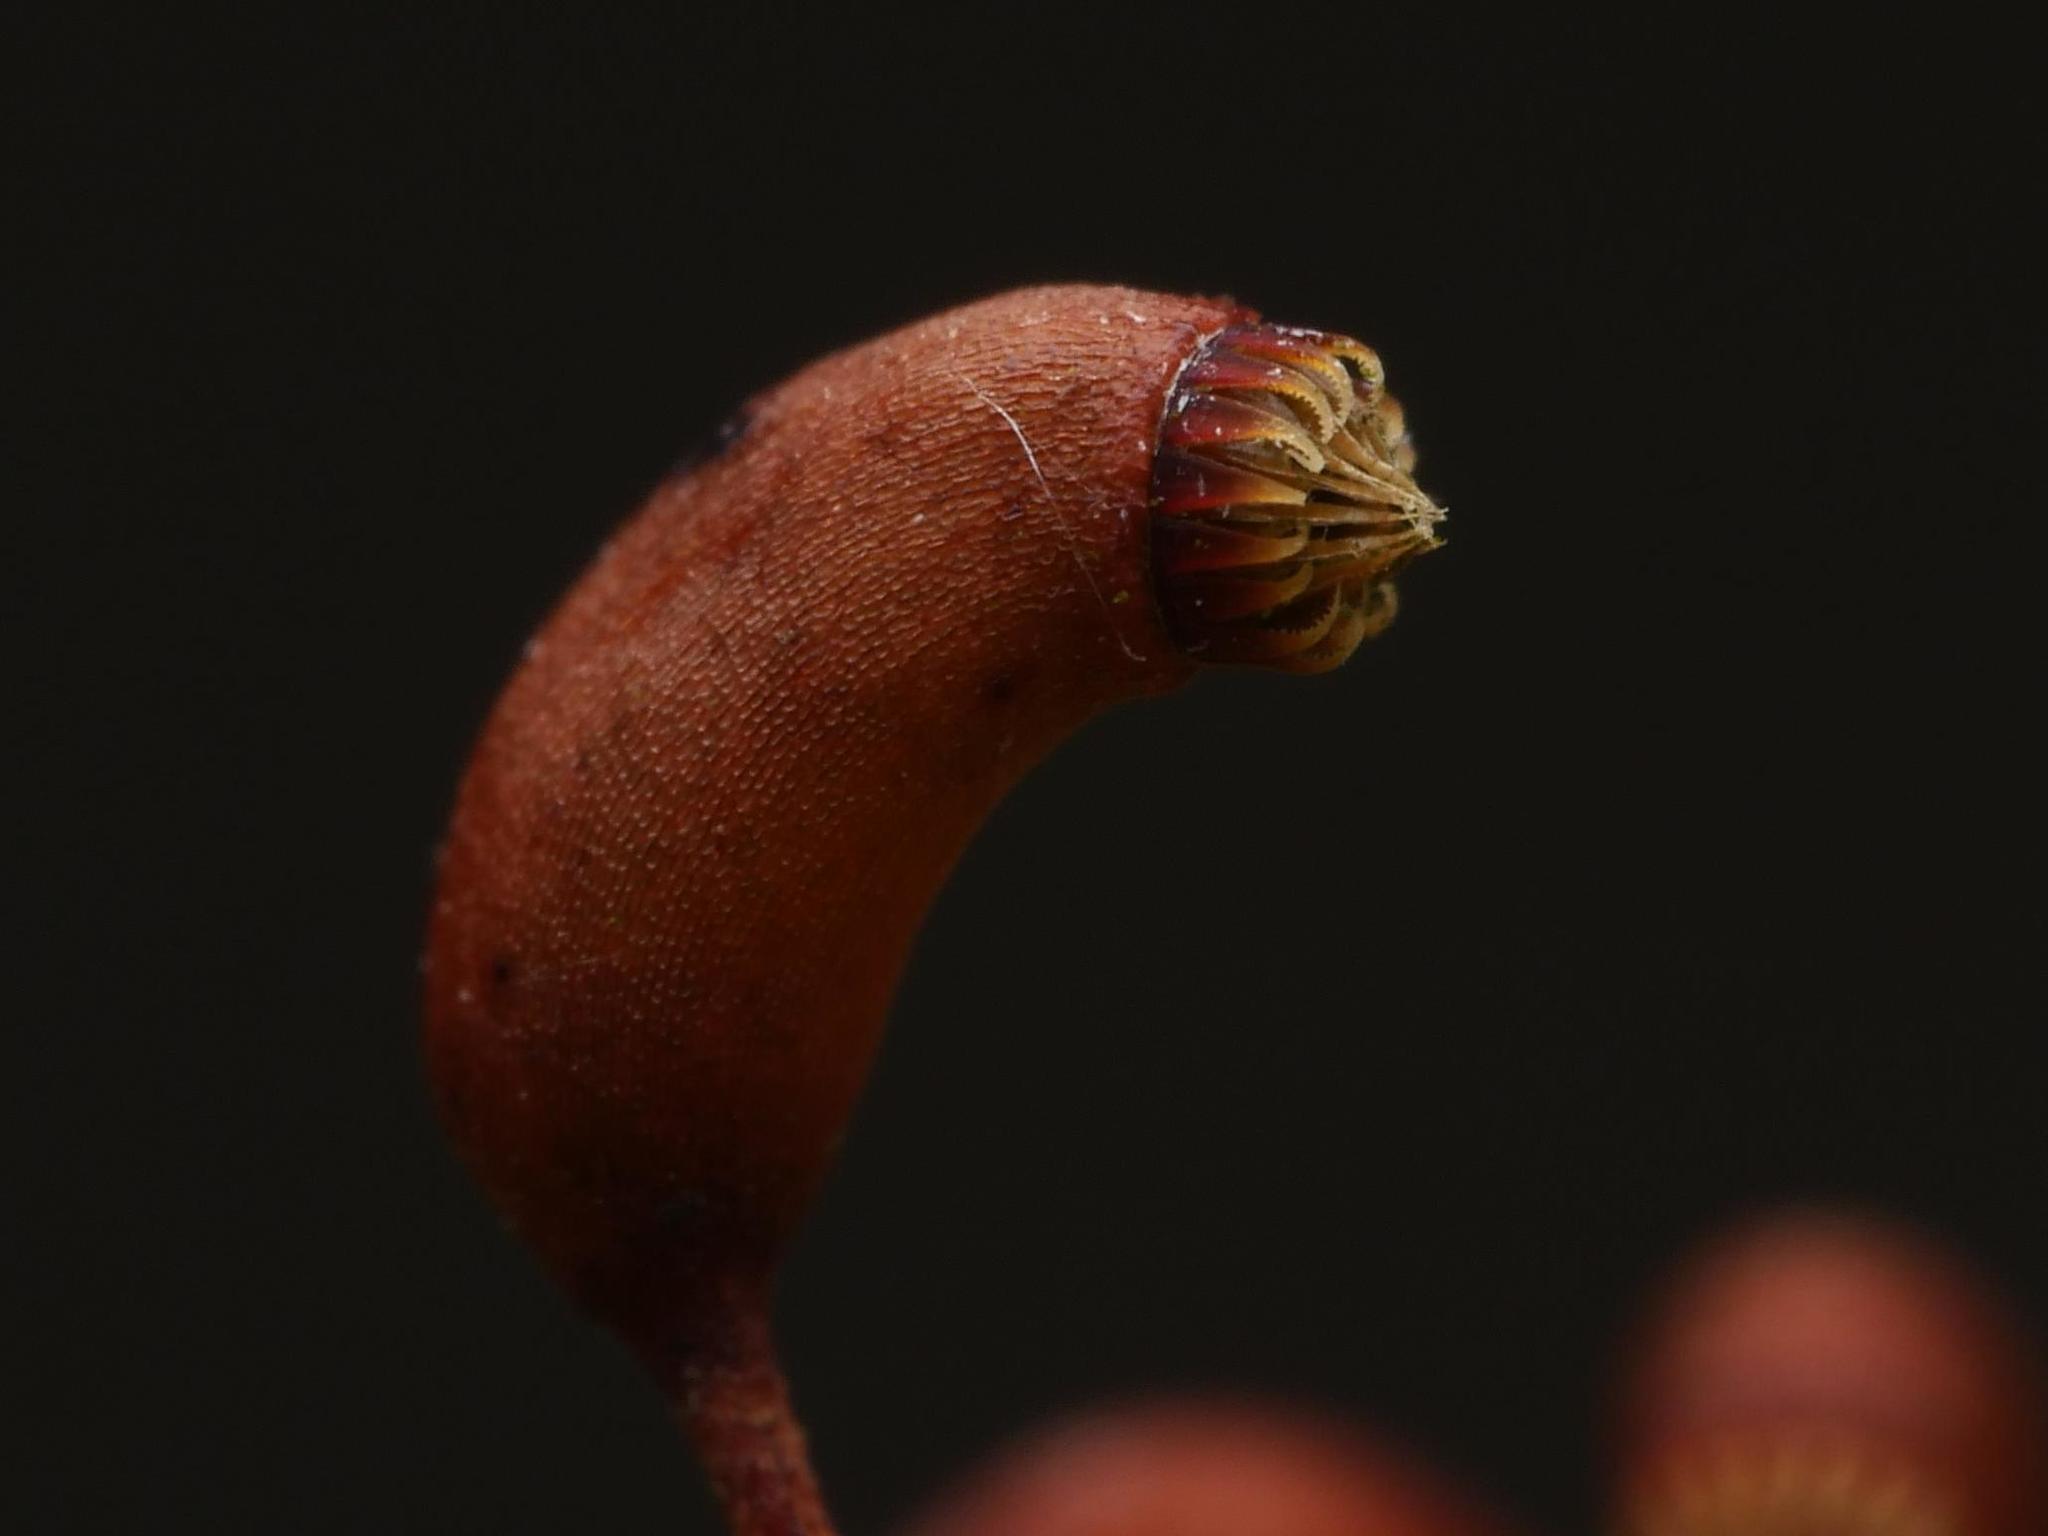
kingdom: Plantae
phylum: Bryophyta
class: Bryopsida
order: Hypnales
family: Brachytheciaceae
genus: Brachythecium
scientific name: Brachythecium rutabulum
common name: Rough-stalked feather-moss
